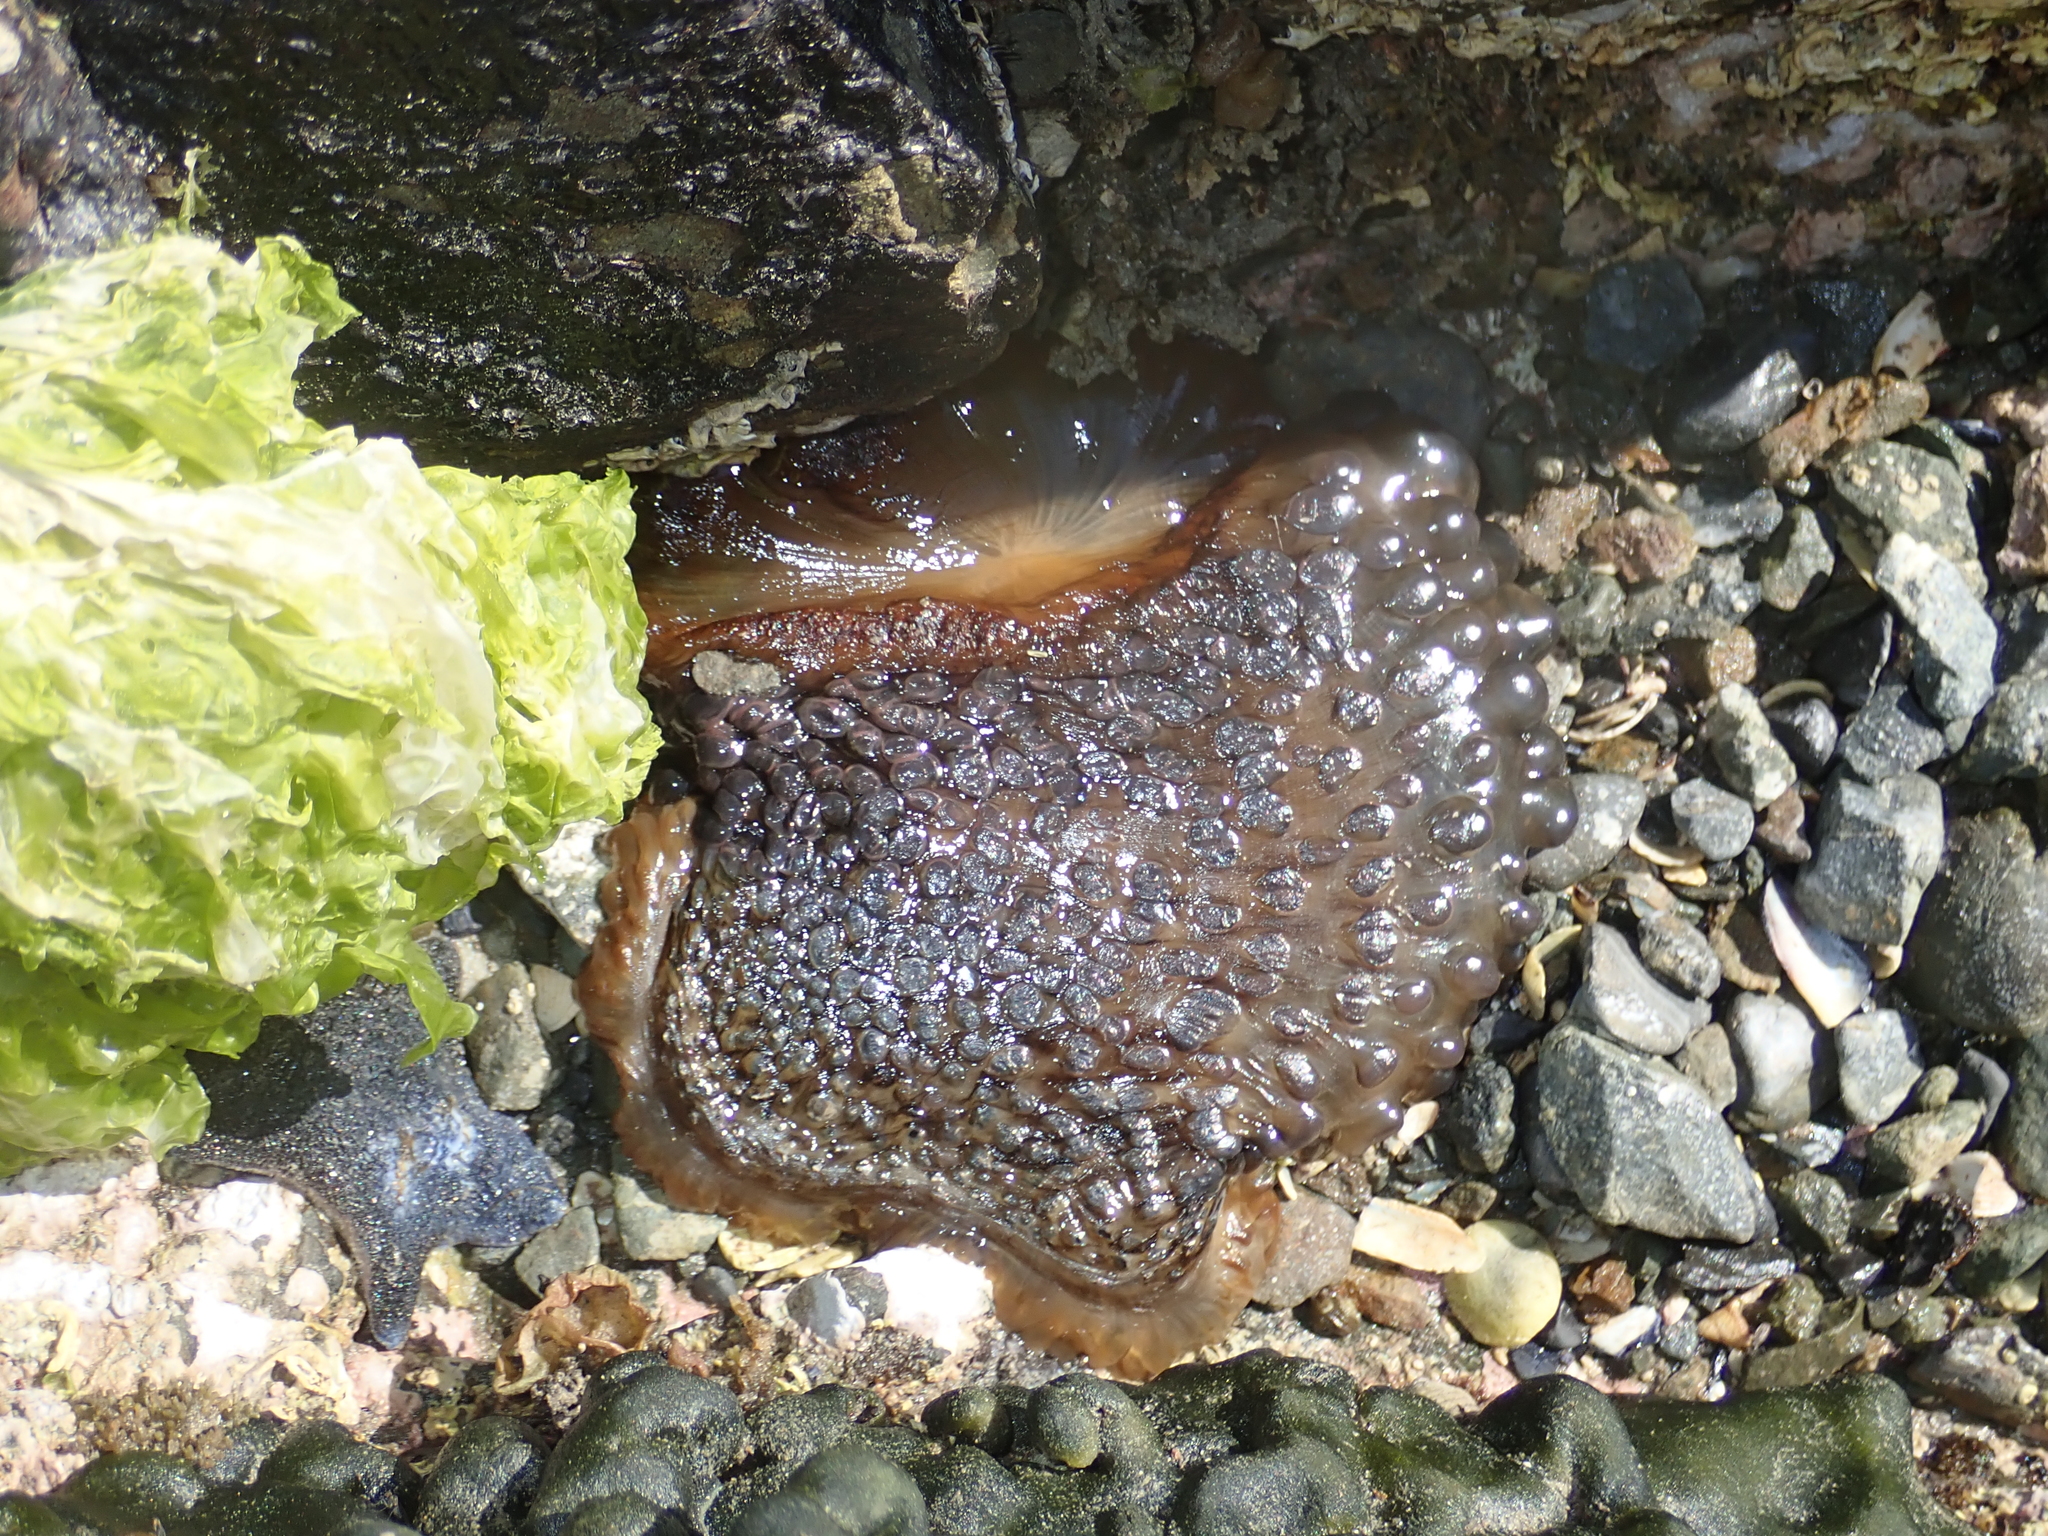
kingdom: Animalia
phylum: Cnidaria
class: Anthozoa
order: Actiniaria
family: Actiniidae
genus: Phlyctenactis
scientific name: Phlyctenactis tuberculosa
